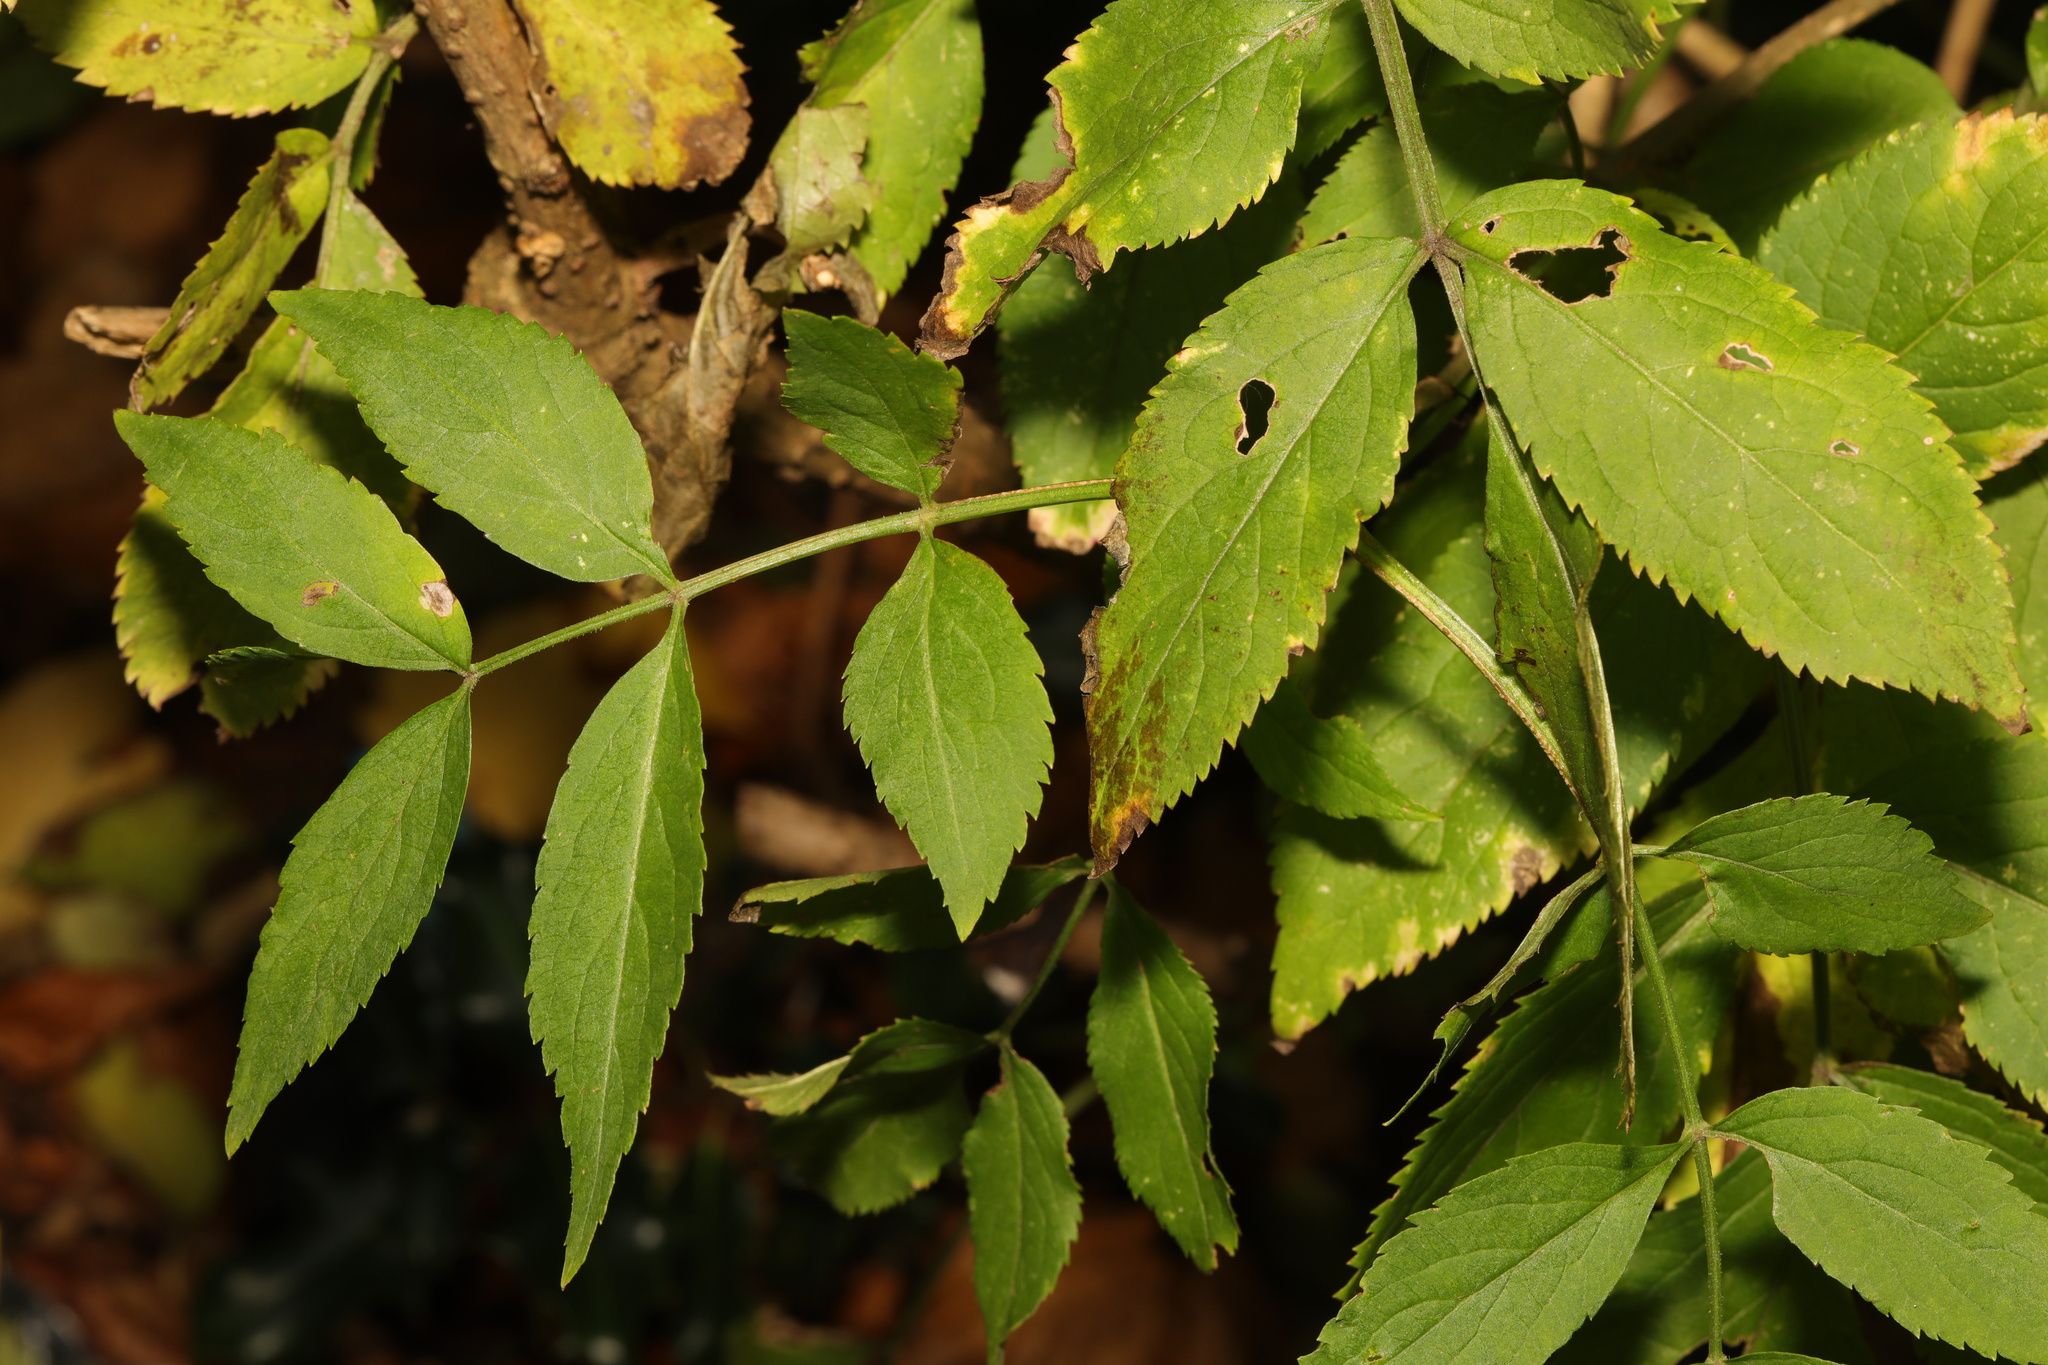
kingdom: Plantae
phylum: Tracheophyta
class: Magnoliopsida
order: Dipsacales
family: Viburnaceae
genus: Sambucus
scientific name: Sambucus nigra
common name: Elder
